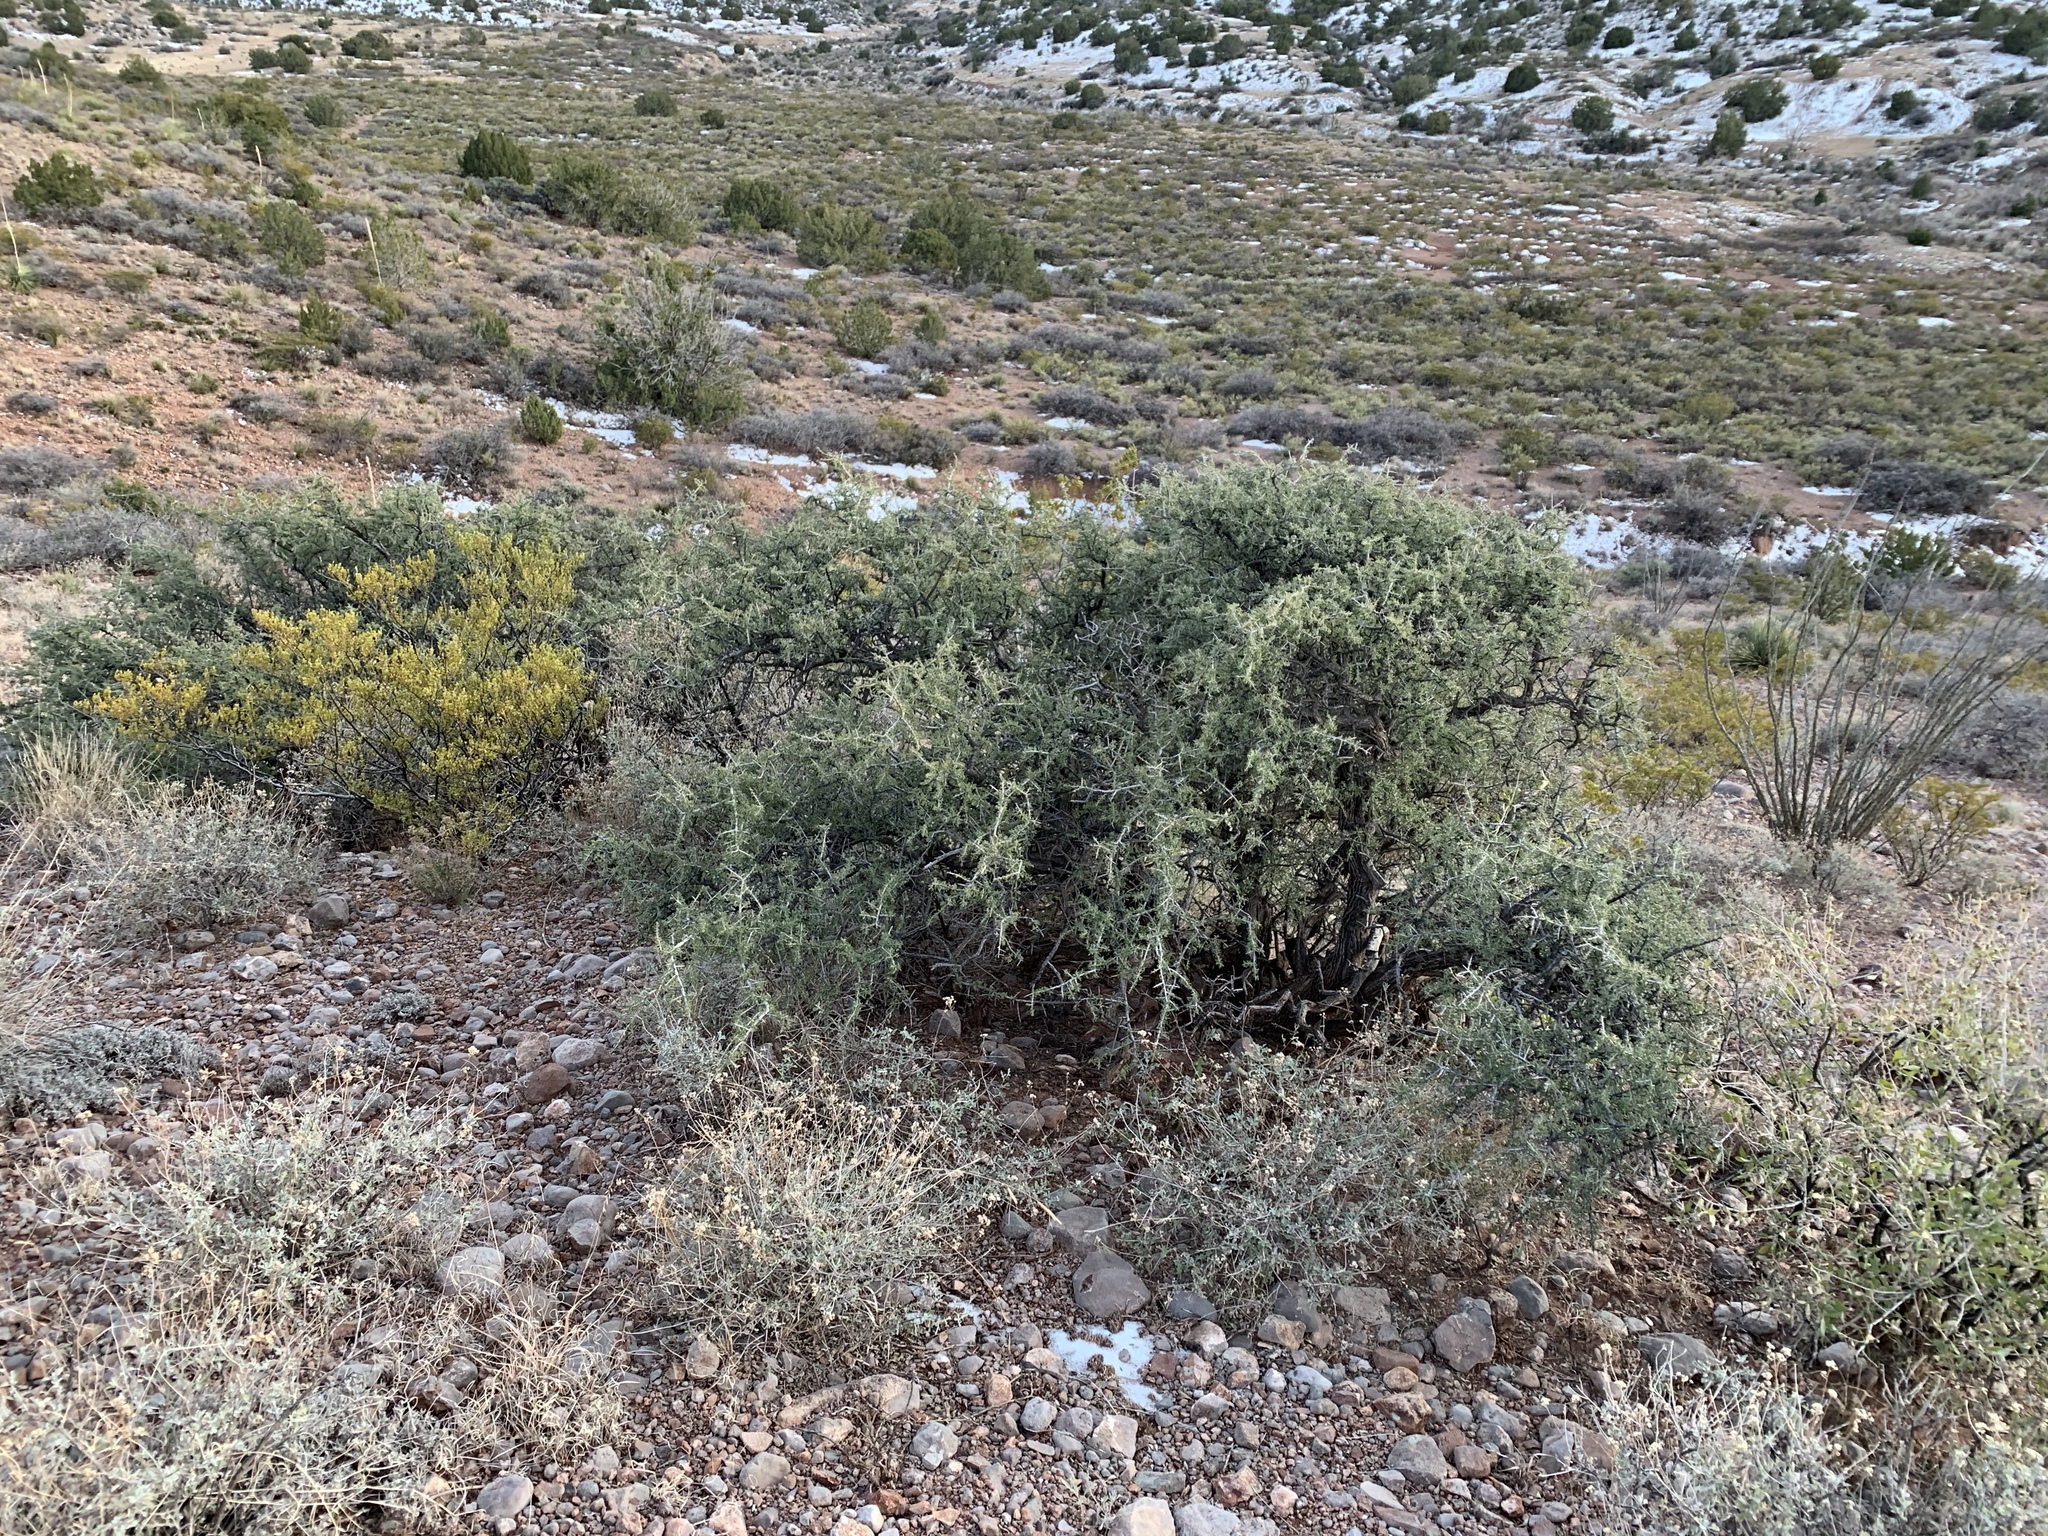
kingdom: Plantae
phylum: Tracheophyta
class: Magnoliopsida
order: Rosales
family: Rhamnaceae
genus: Condalia
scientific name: Condalia warnockii
